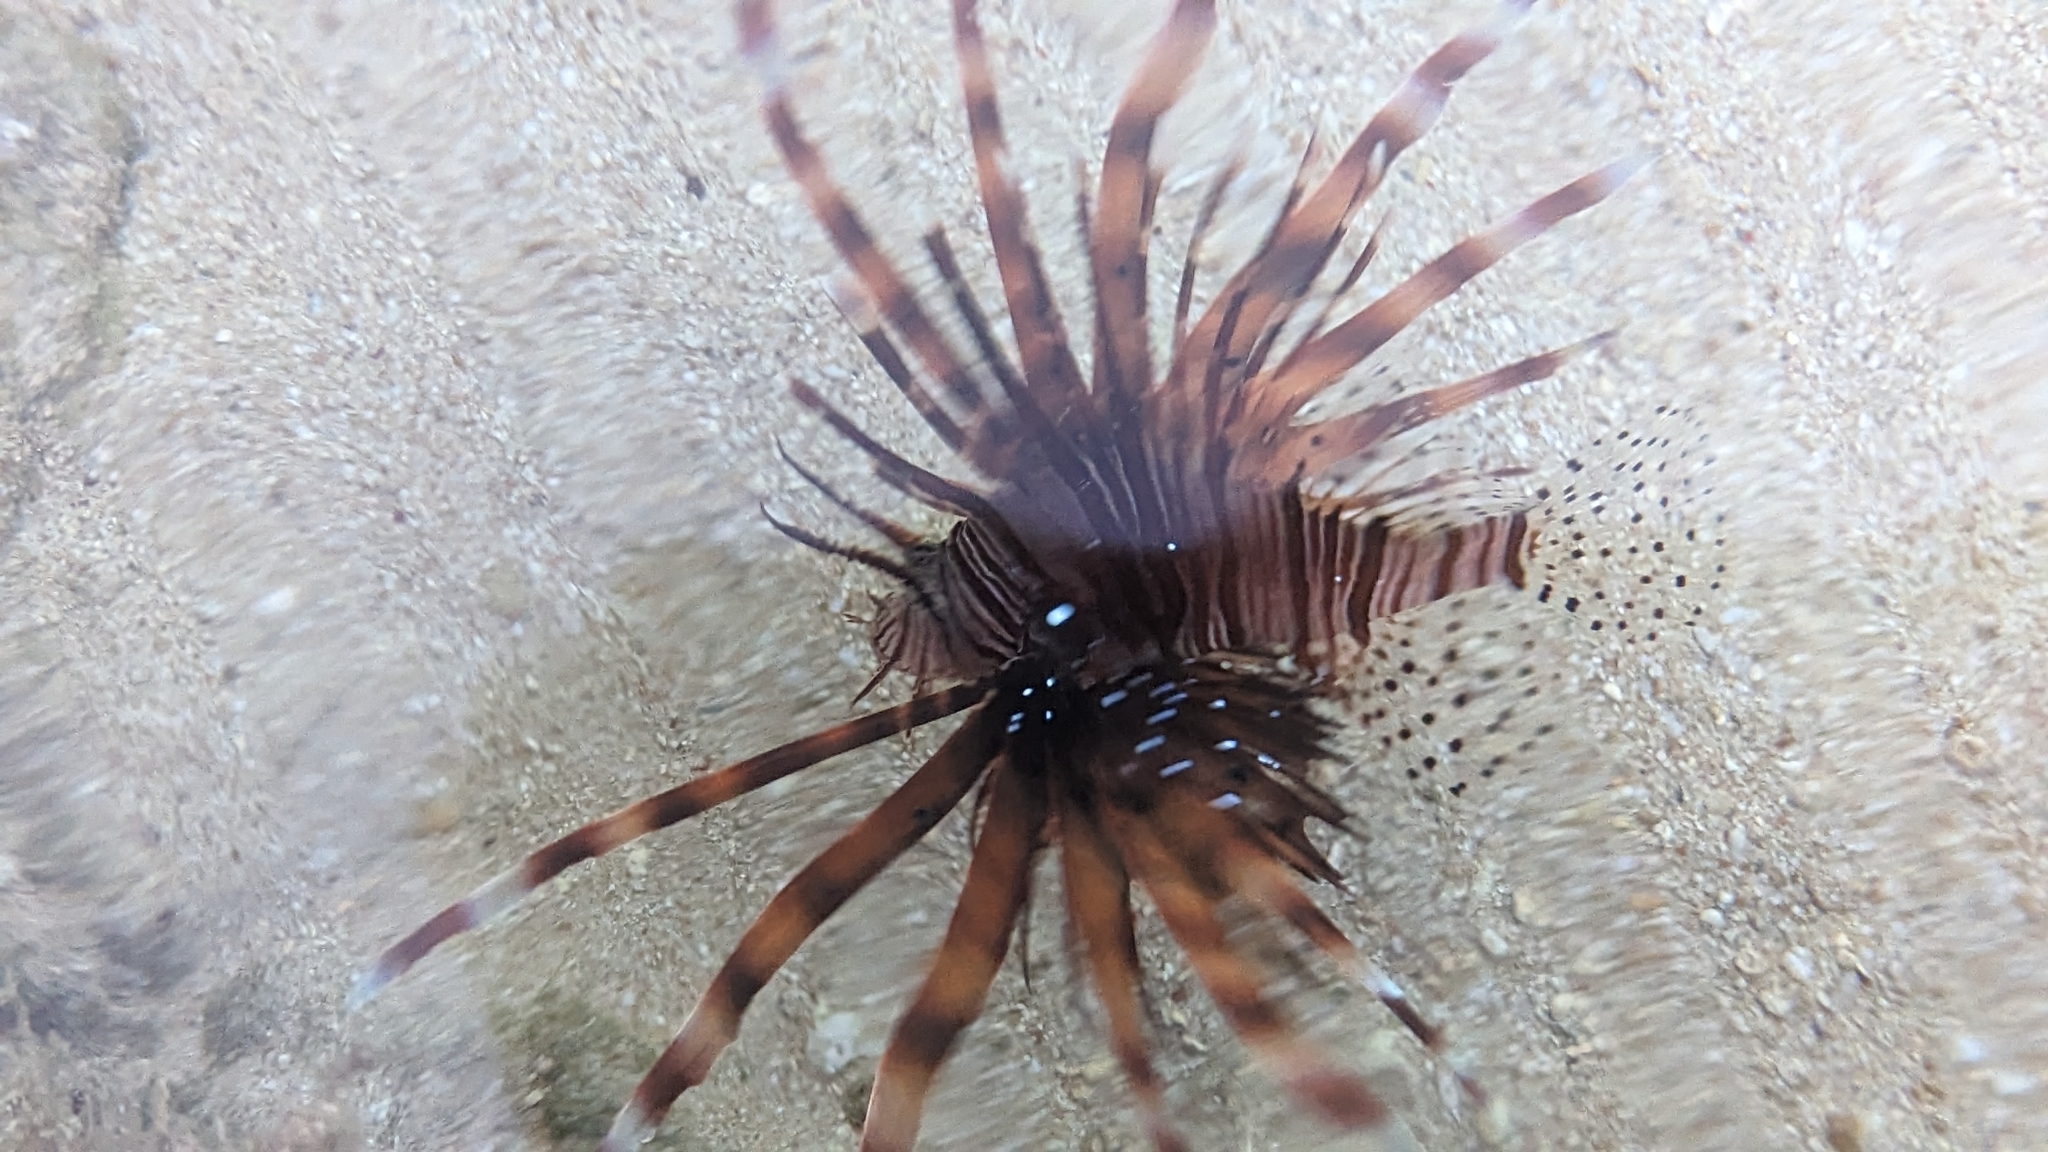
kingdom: Animalia
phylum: Chordata
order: Scorpaeniformes
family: Scorpaenidae
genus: Pterois
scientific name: Pterois miles
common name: Devil firefish
